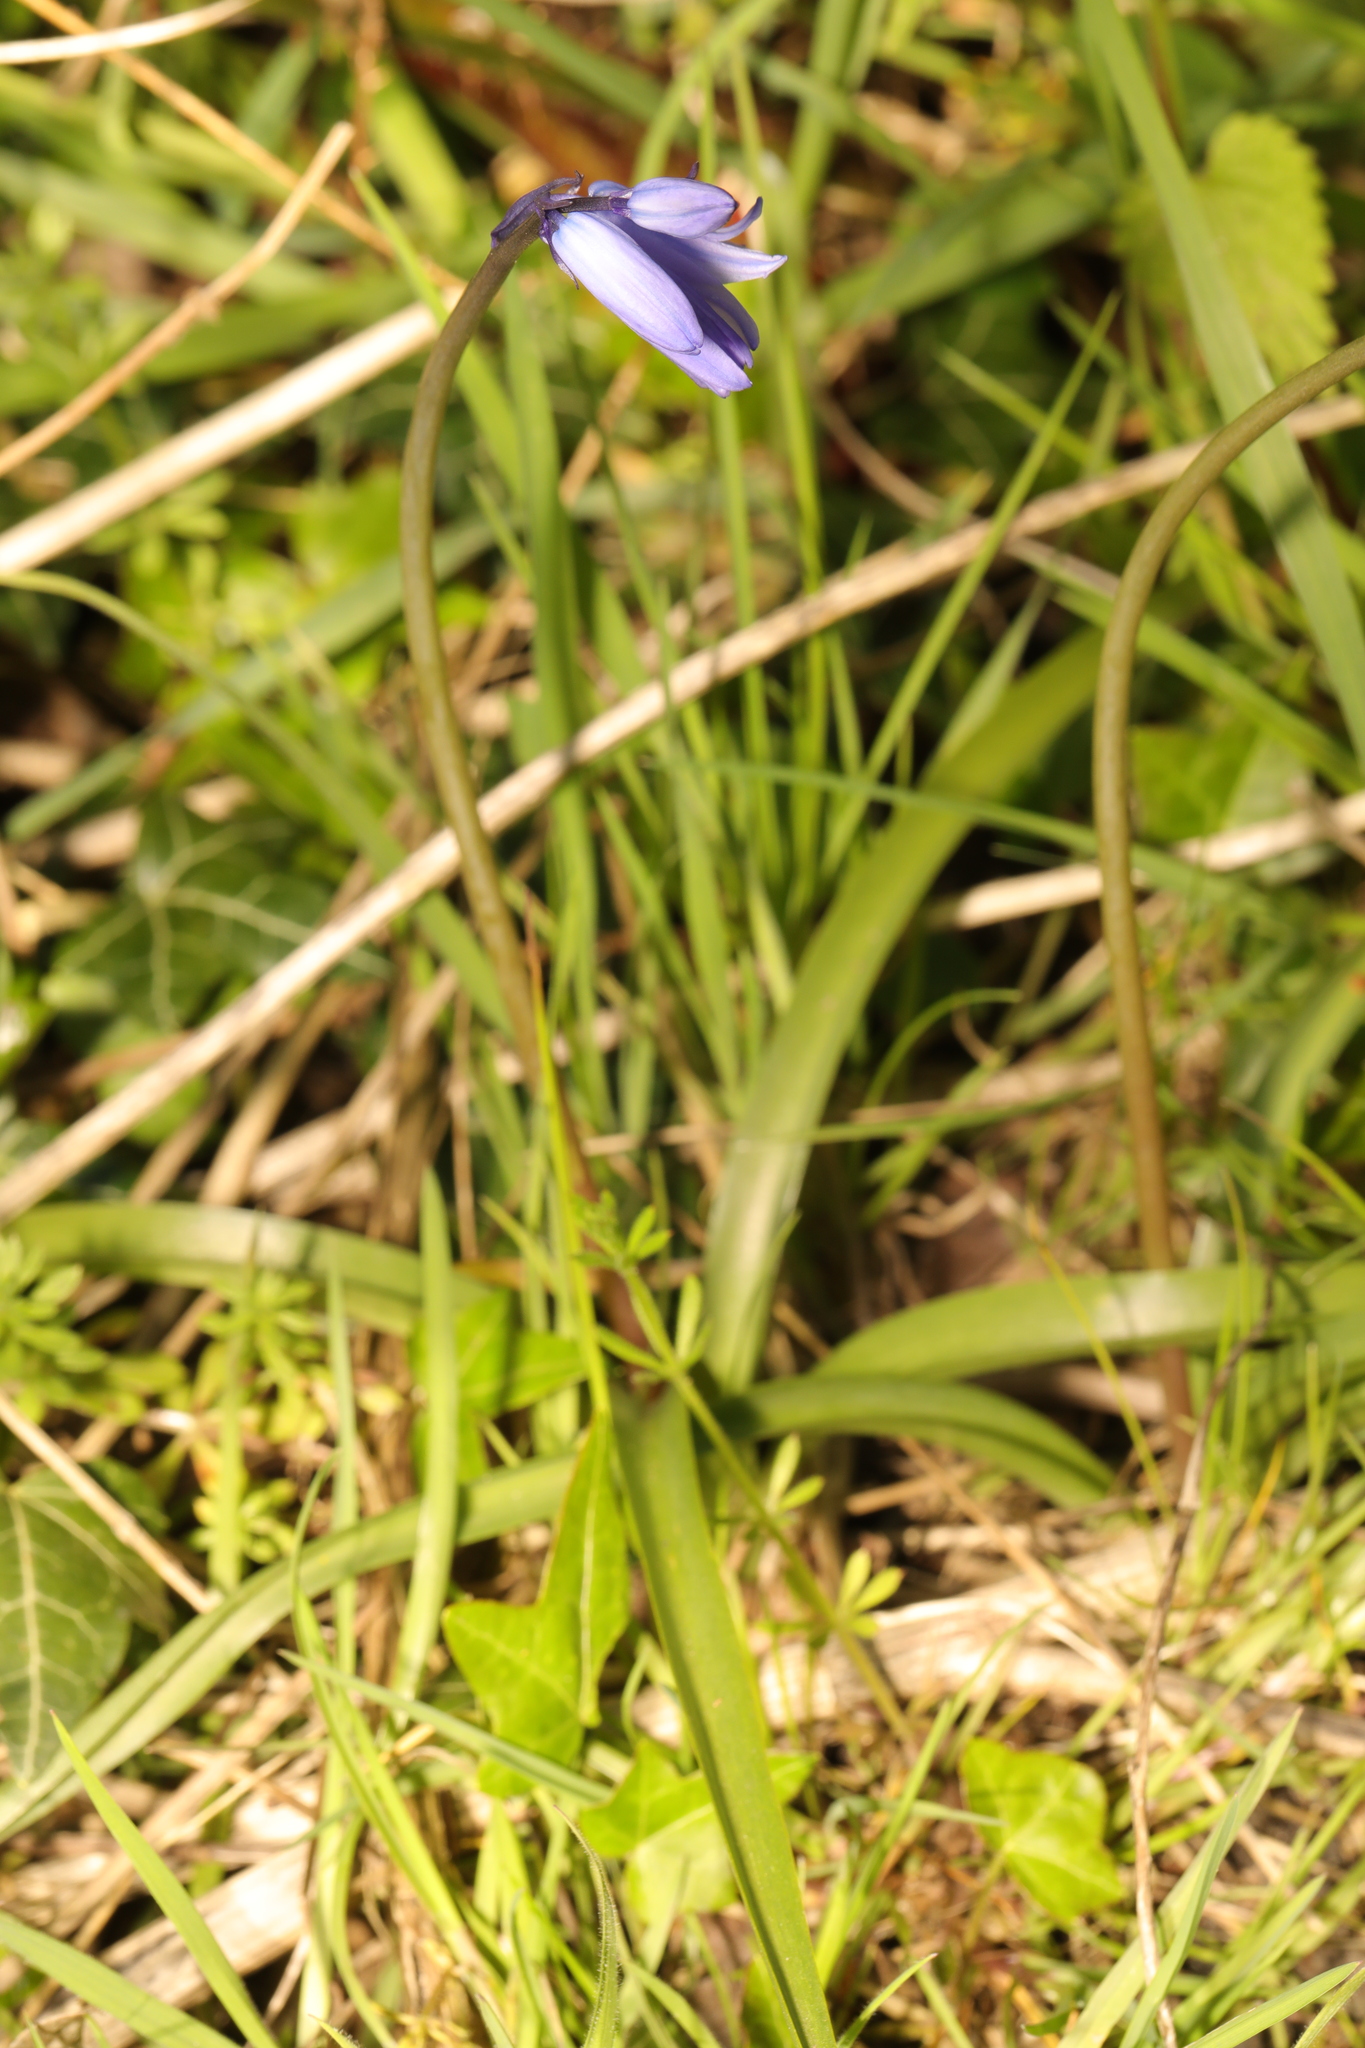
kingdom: Plantae
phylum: Tracheophyta
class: Liliopsida
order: Asparagales
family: Asparagaceae
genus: Hyacinthoides
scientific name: Hyacinthoides non-scripta
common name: Bluebell
